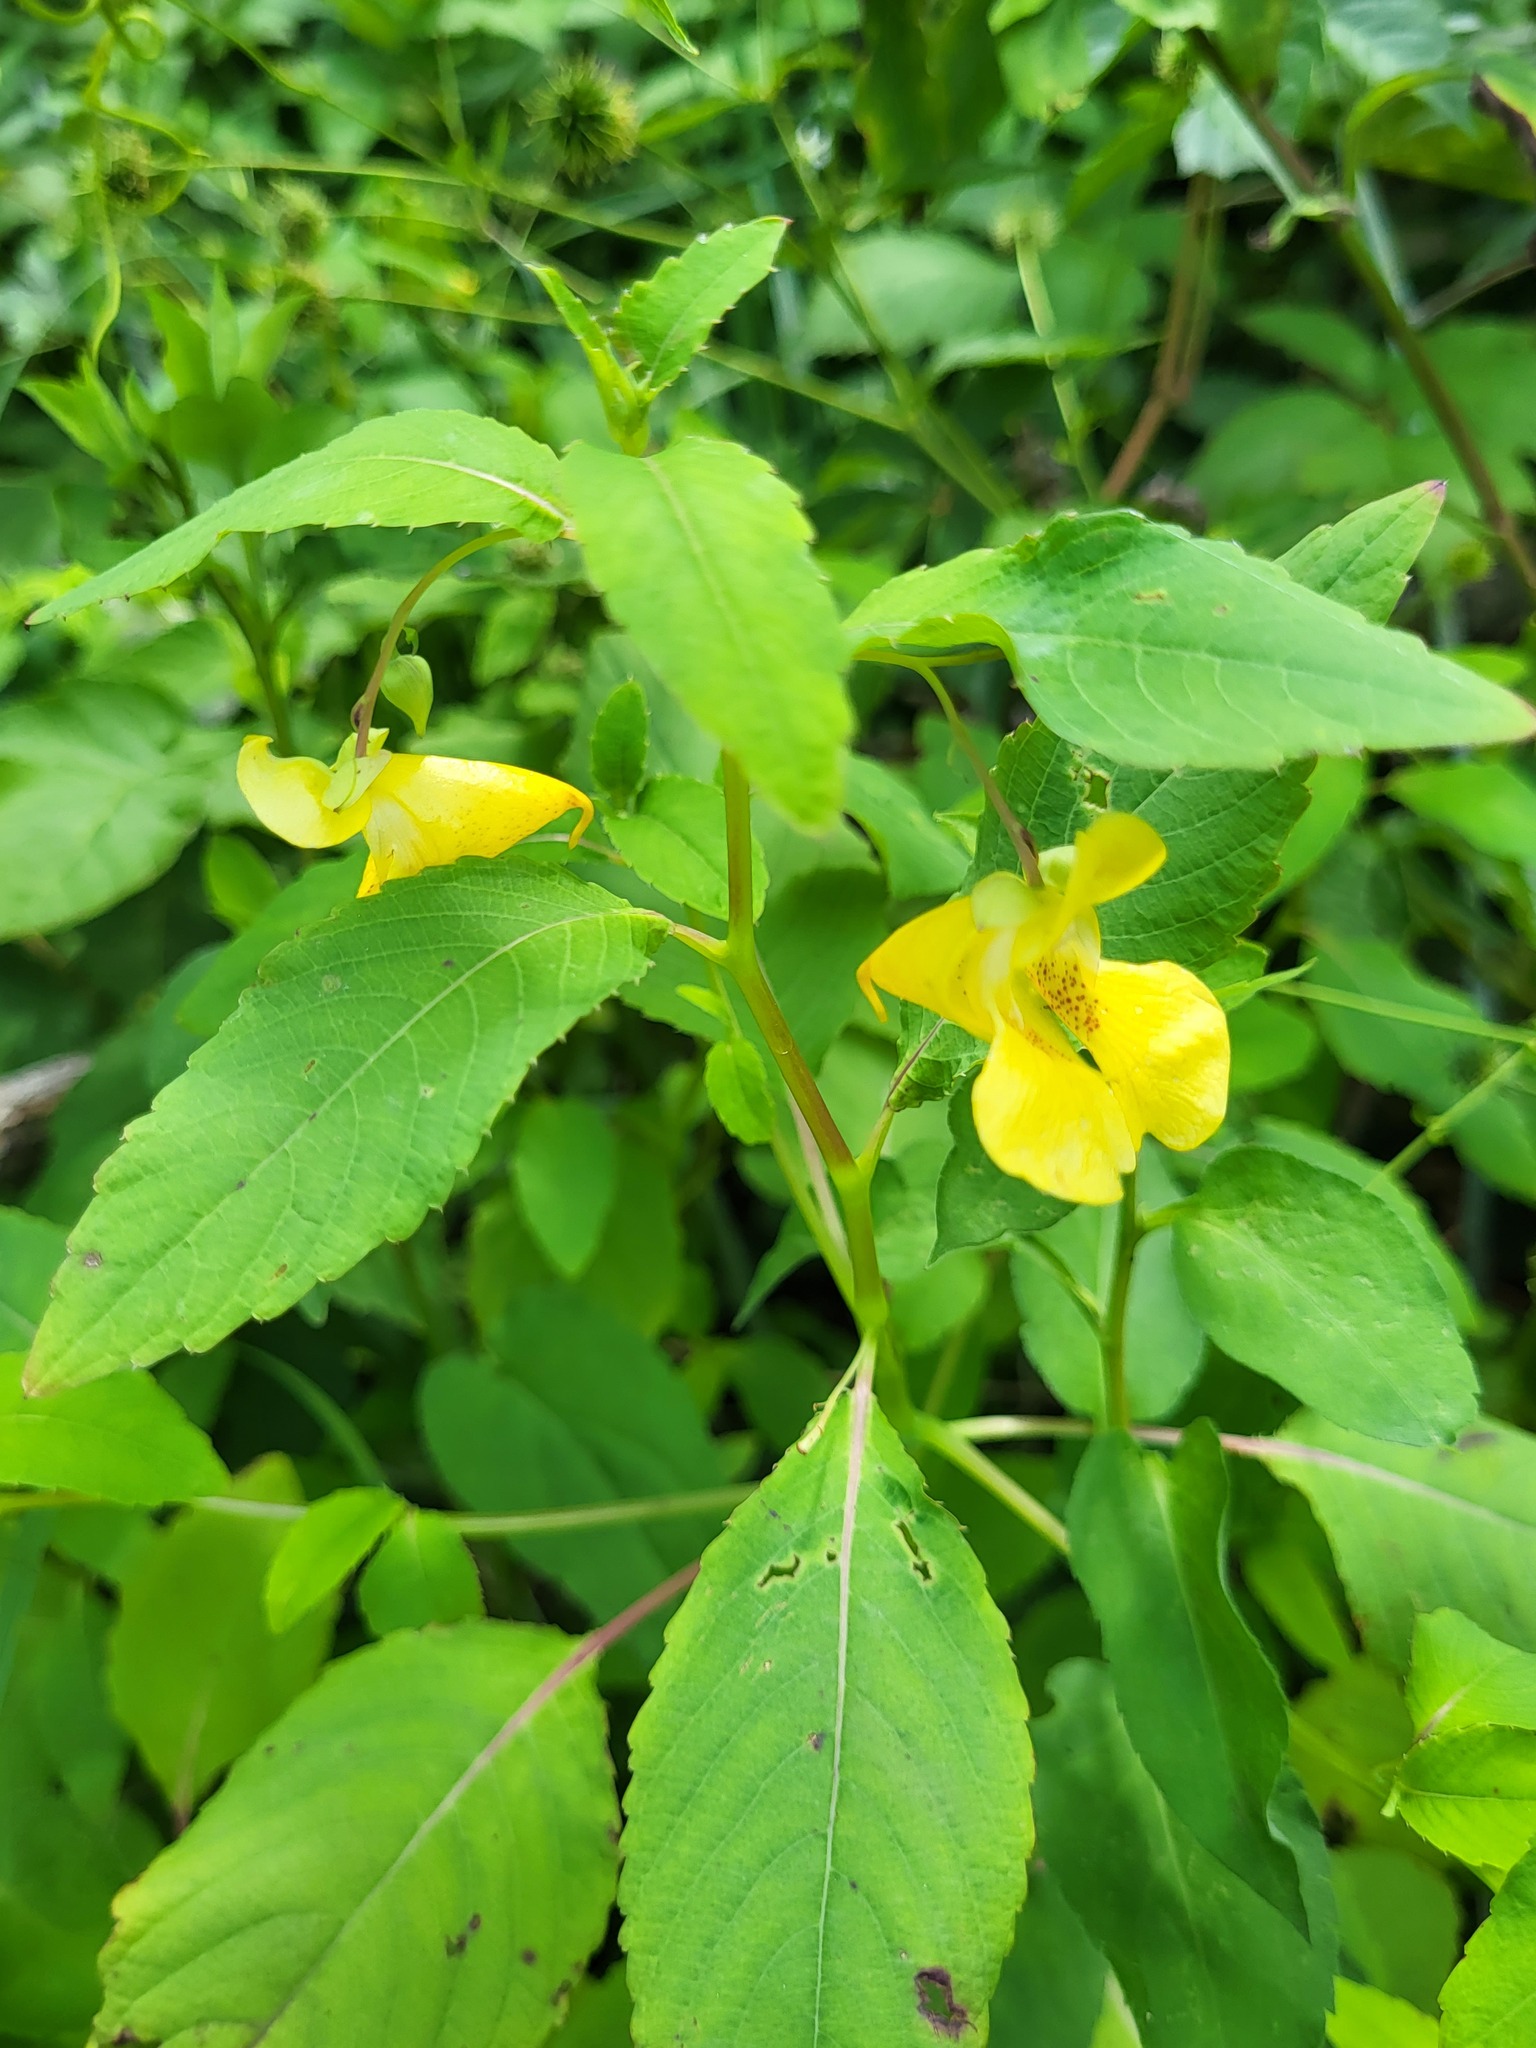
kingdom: Plantae
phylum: Tracheophyta
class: Magnoliopsida
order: Ericales
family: Balsaminaceae
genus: Impatiens
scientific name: Impatiens pallida
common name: Pale snapweed
